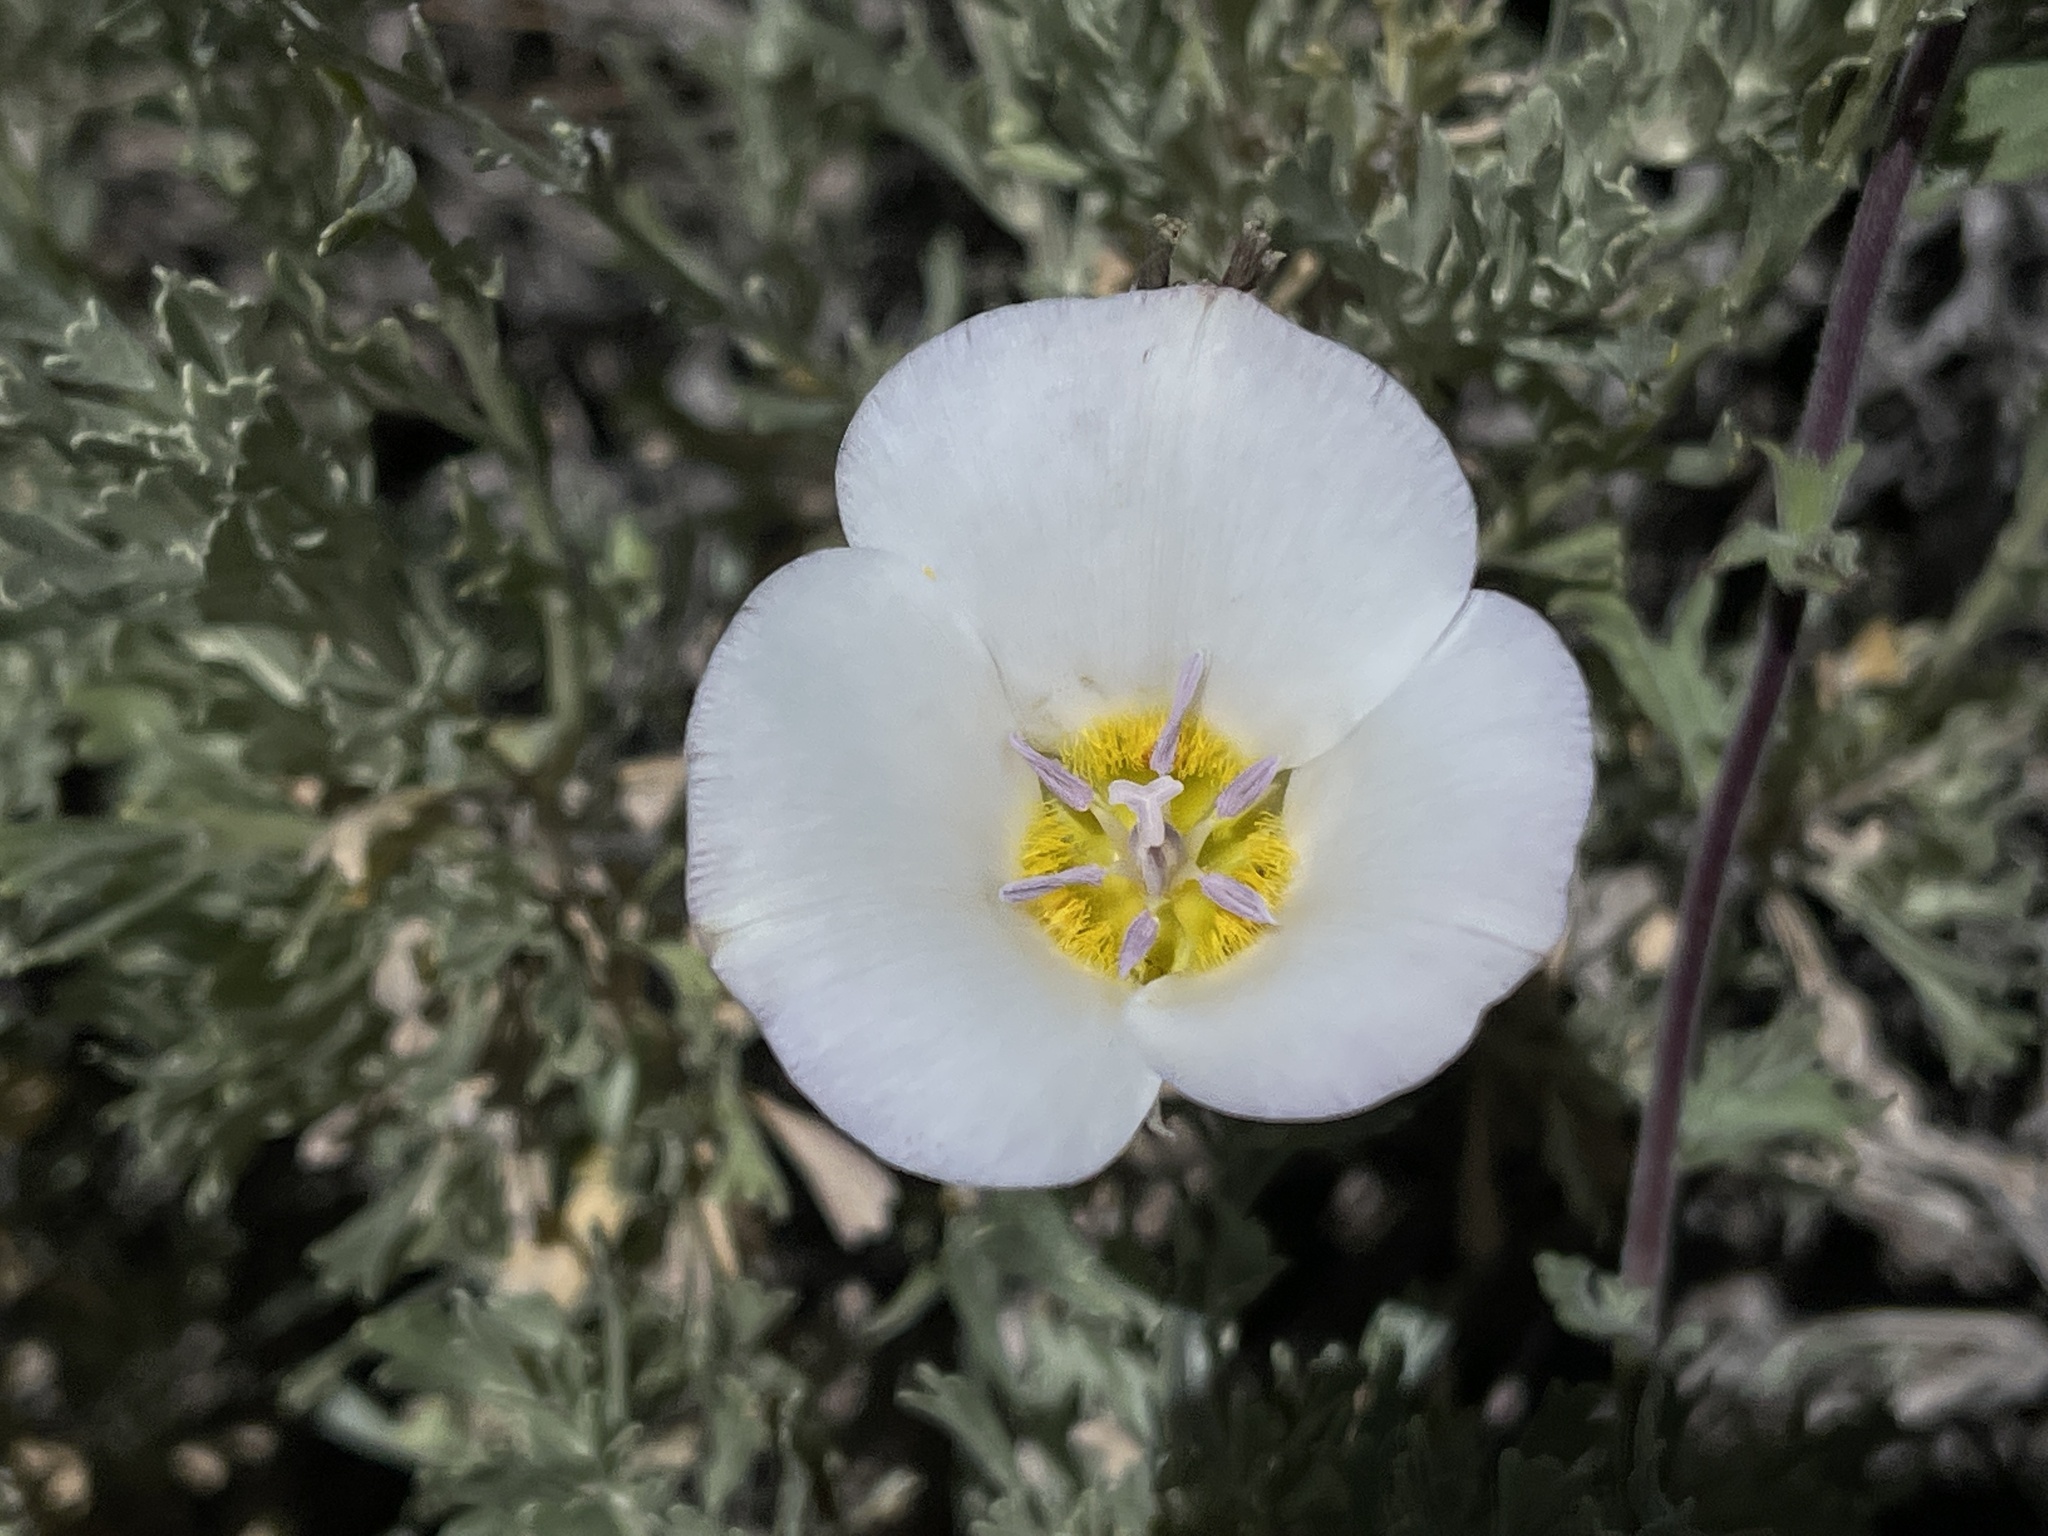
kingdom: Plantae
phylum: Tracheophyta
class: Liliopsida
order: Liliales
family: Liliaceae
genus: Calochortus
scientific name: Calochortus panamintensis
